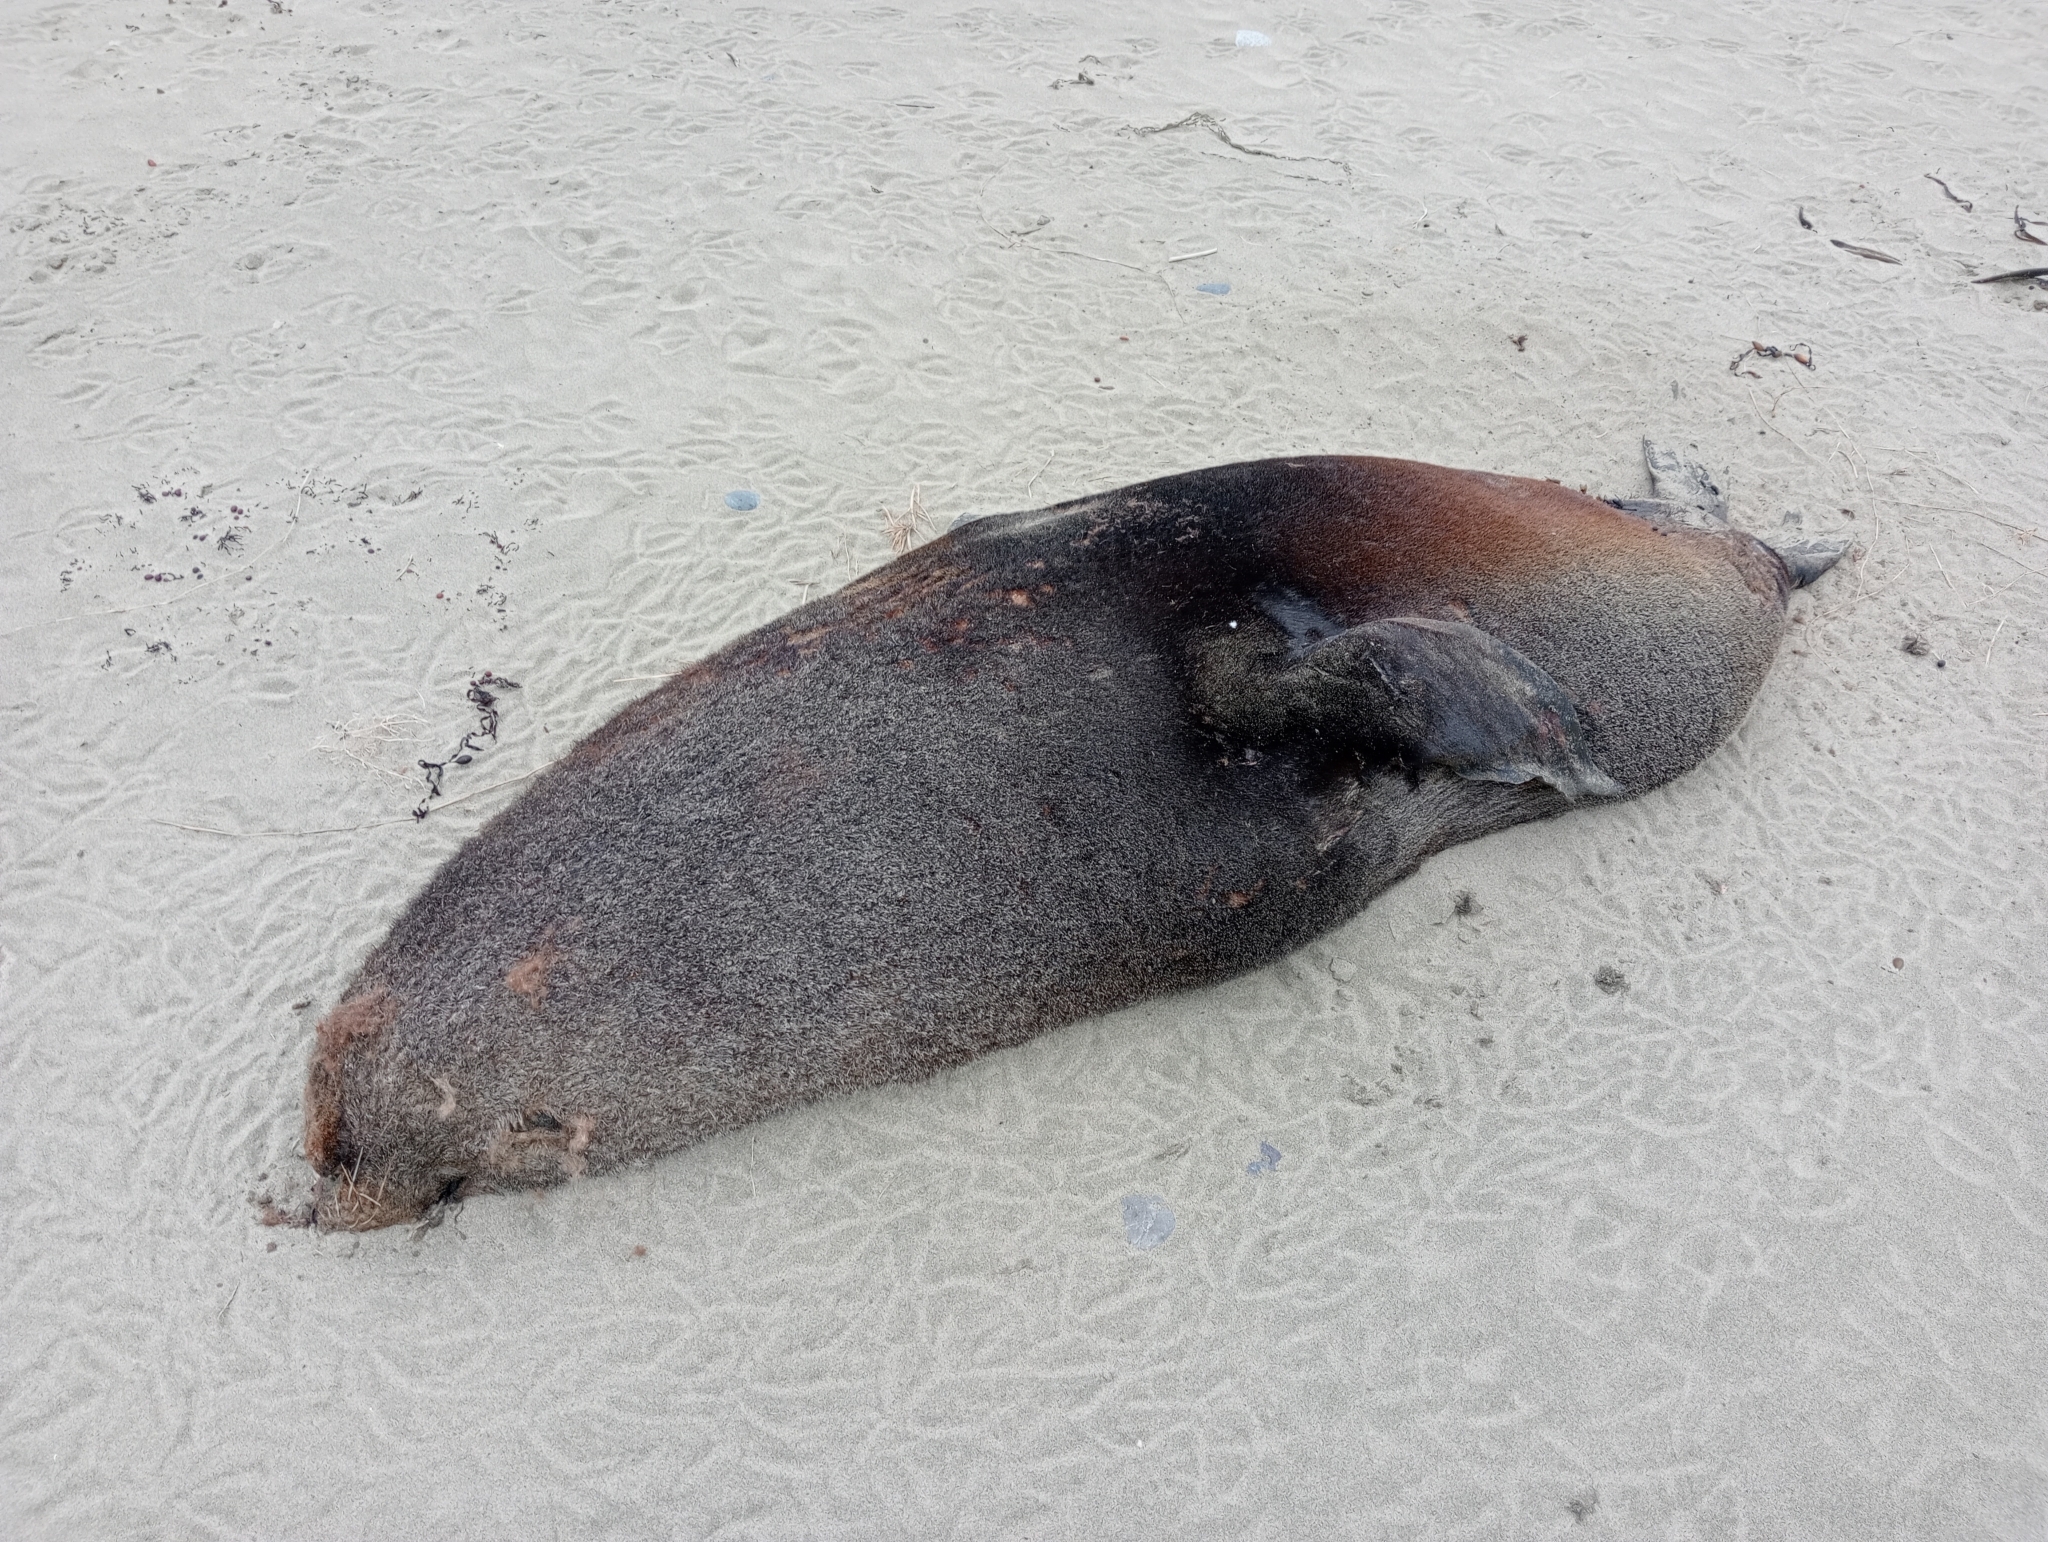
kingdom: Animalia
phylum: Chordata
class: Mammalia
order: Carnivora
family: Otariidae
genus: Arctocephalus
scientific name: Arctocephalus forsteri
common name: New zealand fur seal
